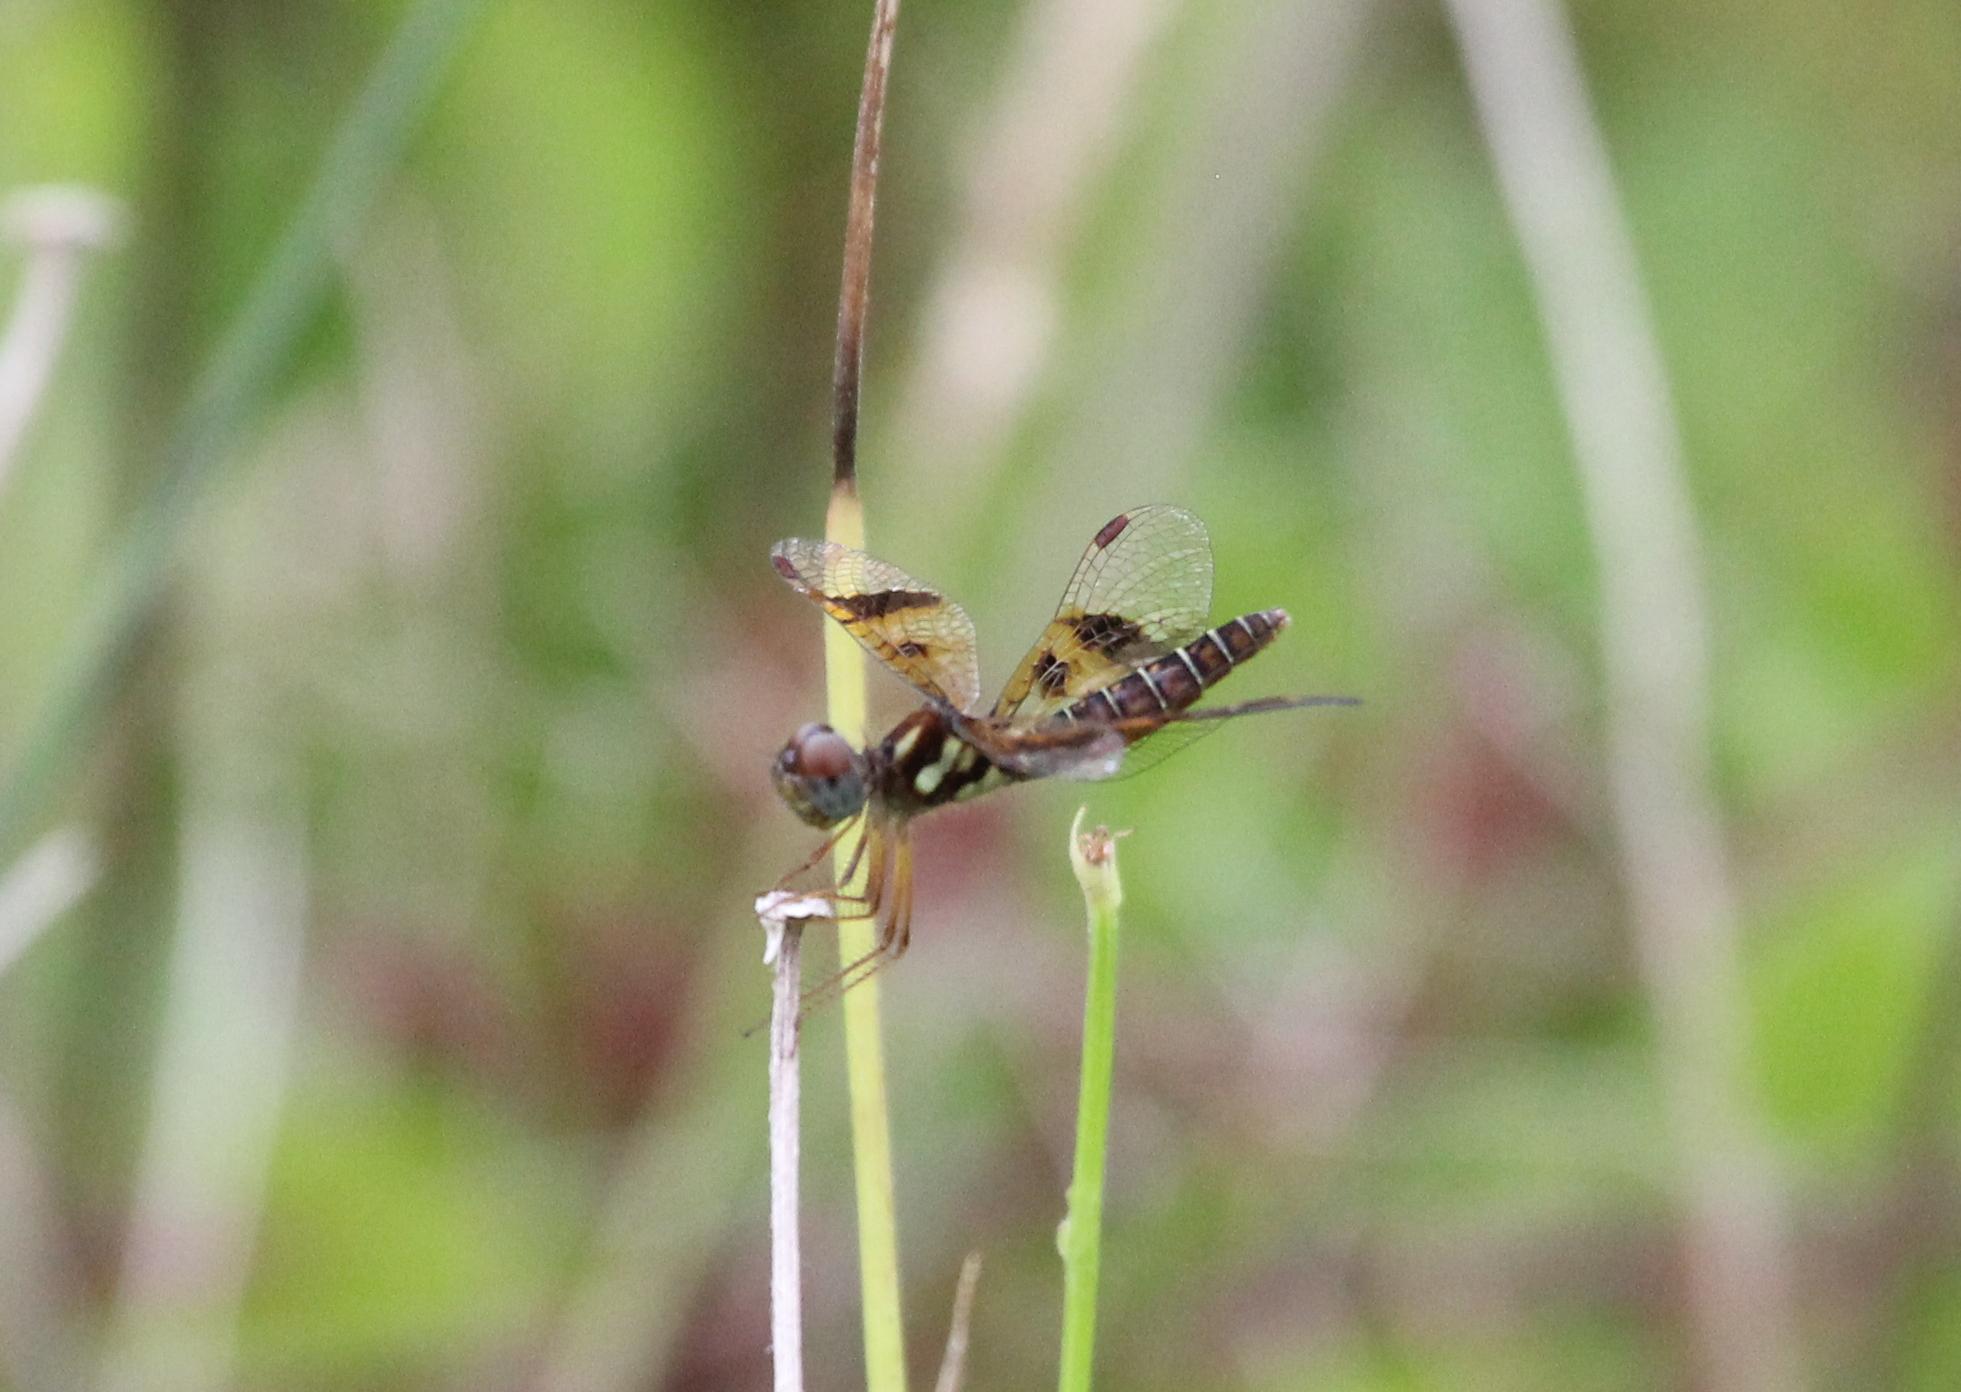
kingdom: Animalia
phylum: Arthropoda
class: Insecta
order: Odonata
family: Libellulidae
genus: Perithemis
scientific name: Perithemis tenera
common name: Eastern amberwing
